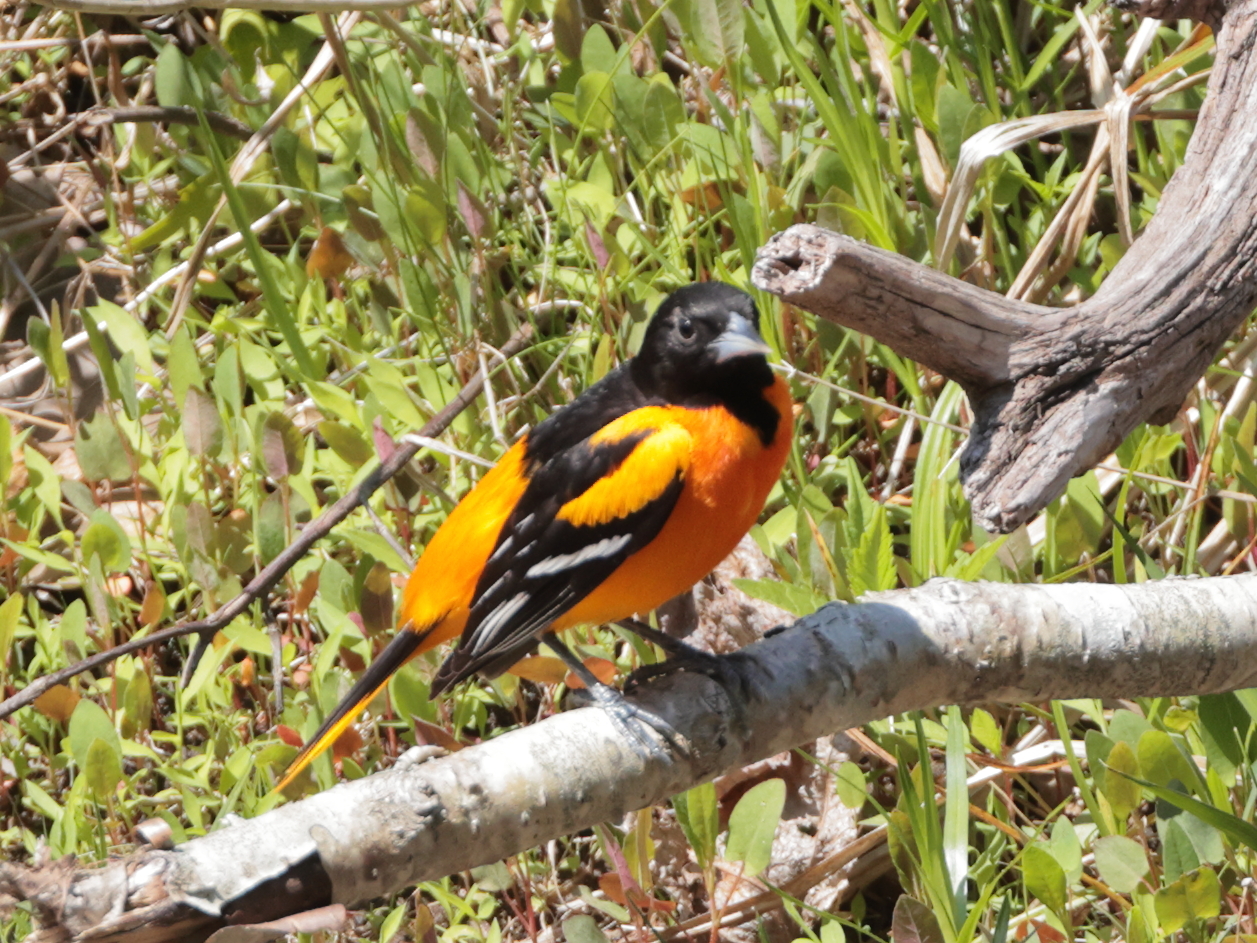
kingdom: Animalia
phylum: Chordata
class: Aves
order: Passeriformes
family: Icteridae
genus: Icterus
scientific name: Icterus galbula
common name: Baltimore oriole
